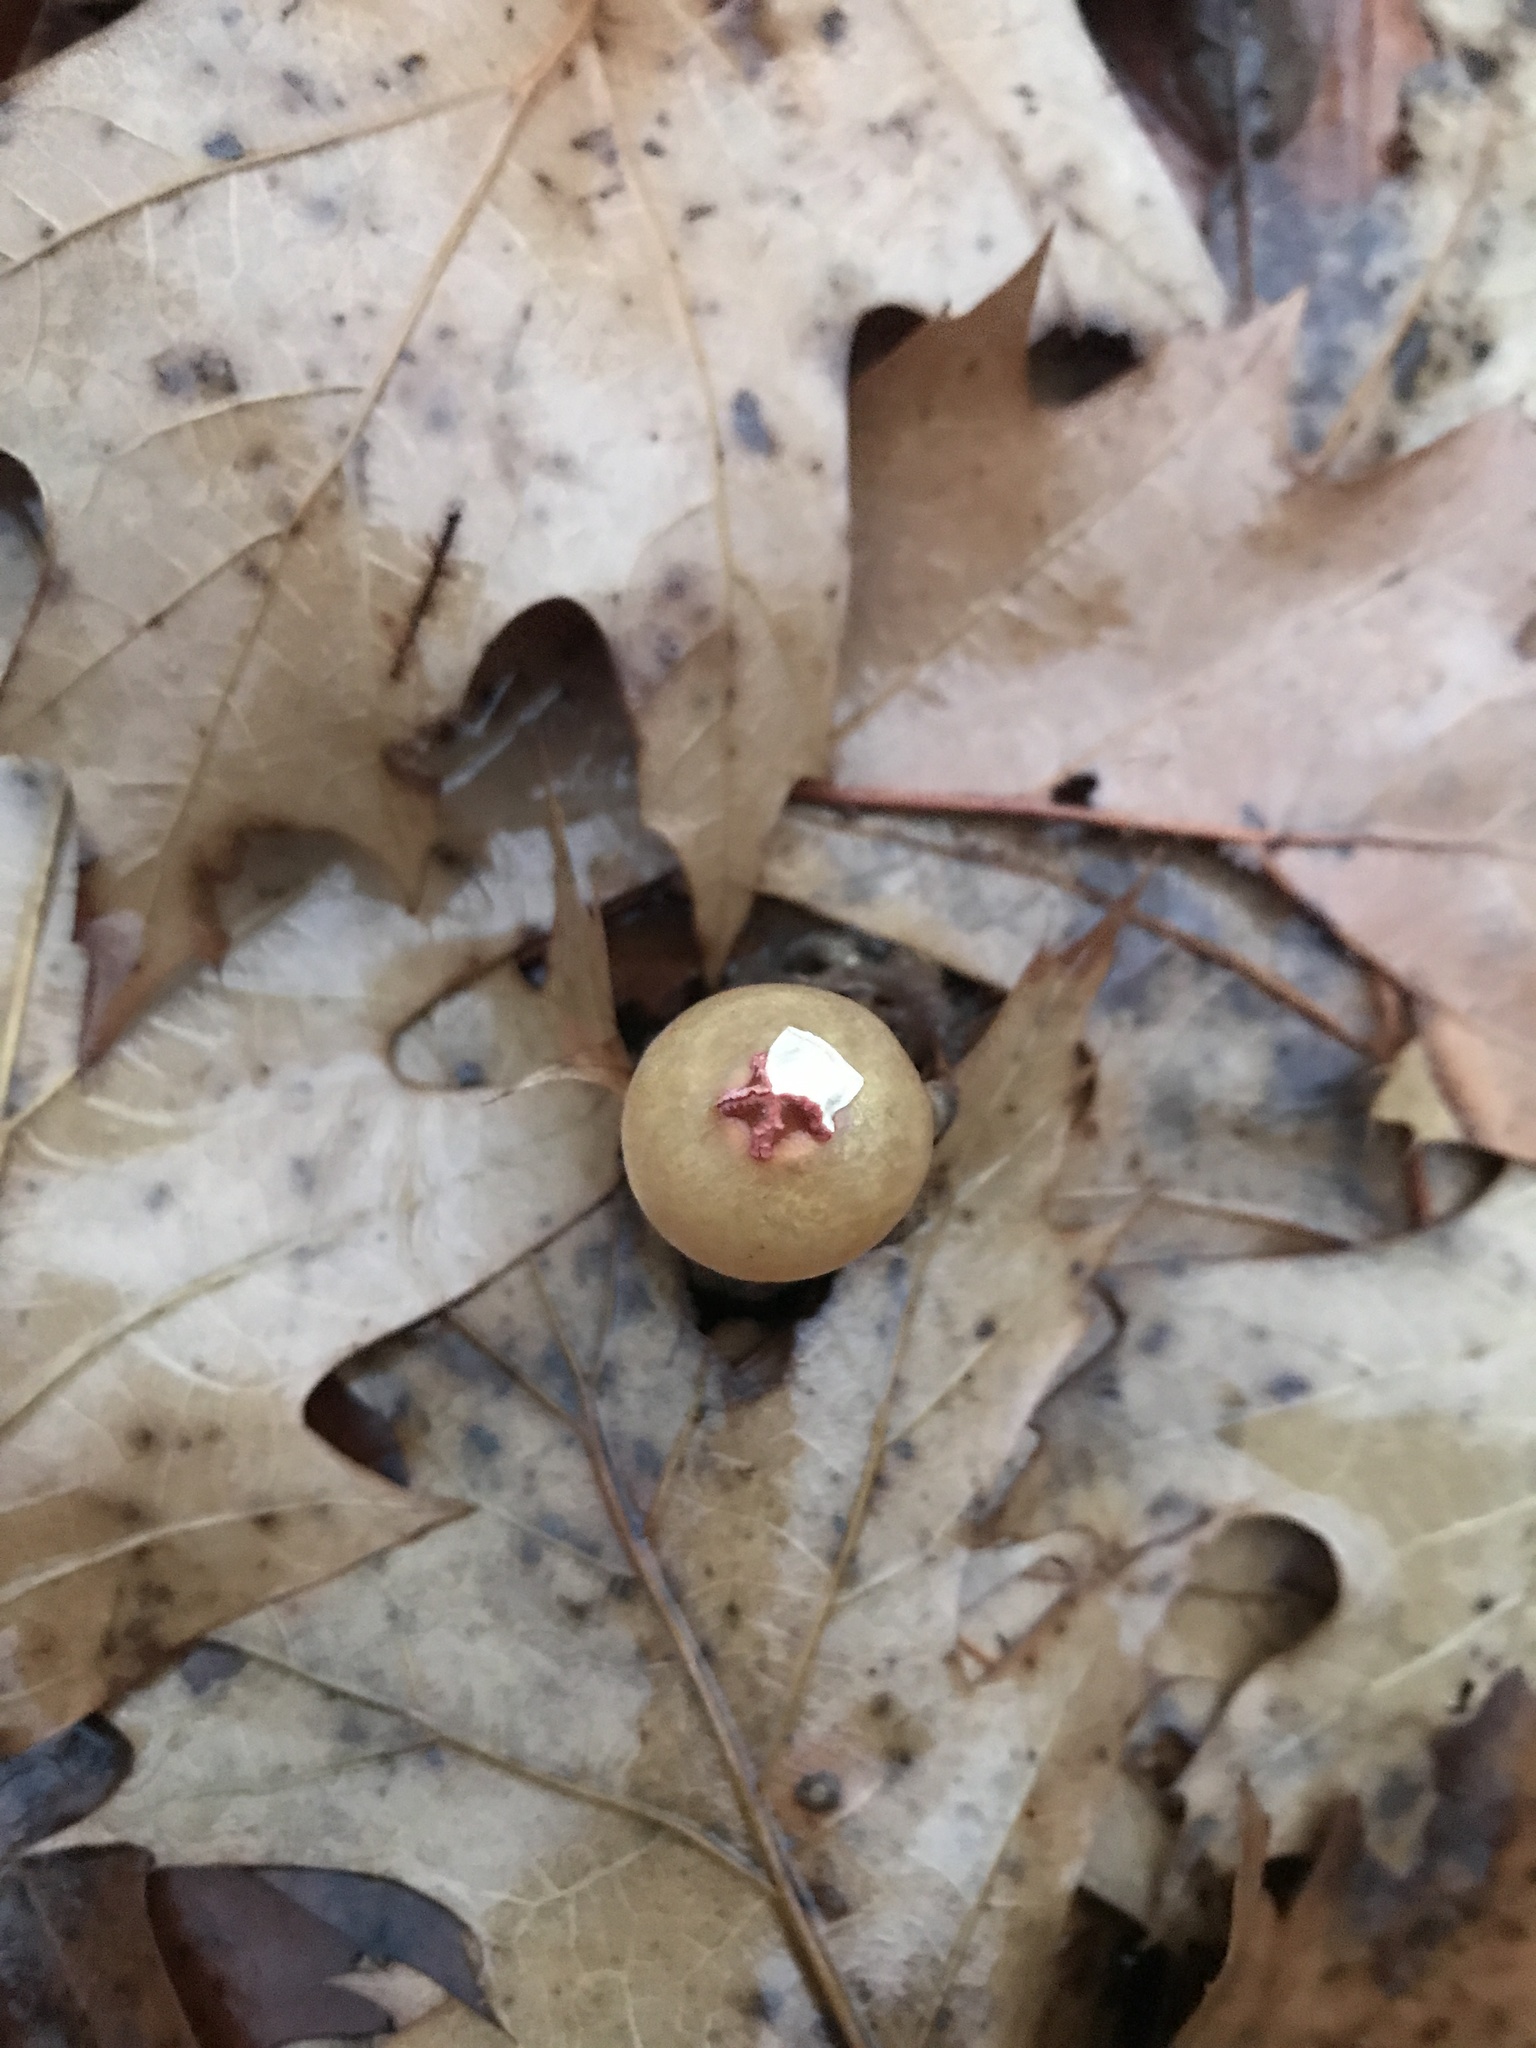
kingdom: Fungi
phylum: Basidiomycota
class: Agaricomycetes
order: Boletales
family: Calostomataceae
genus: Calostoma
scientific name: Calostoma cinnabarinum
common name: Stalked puffball-in-aspic
